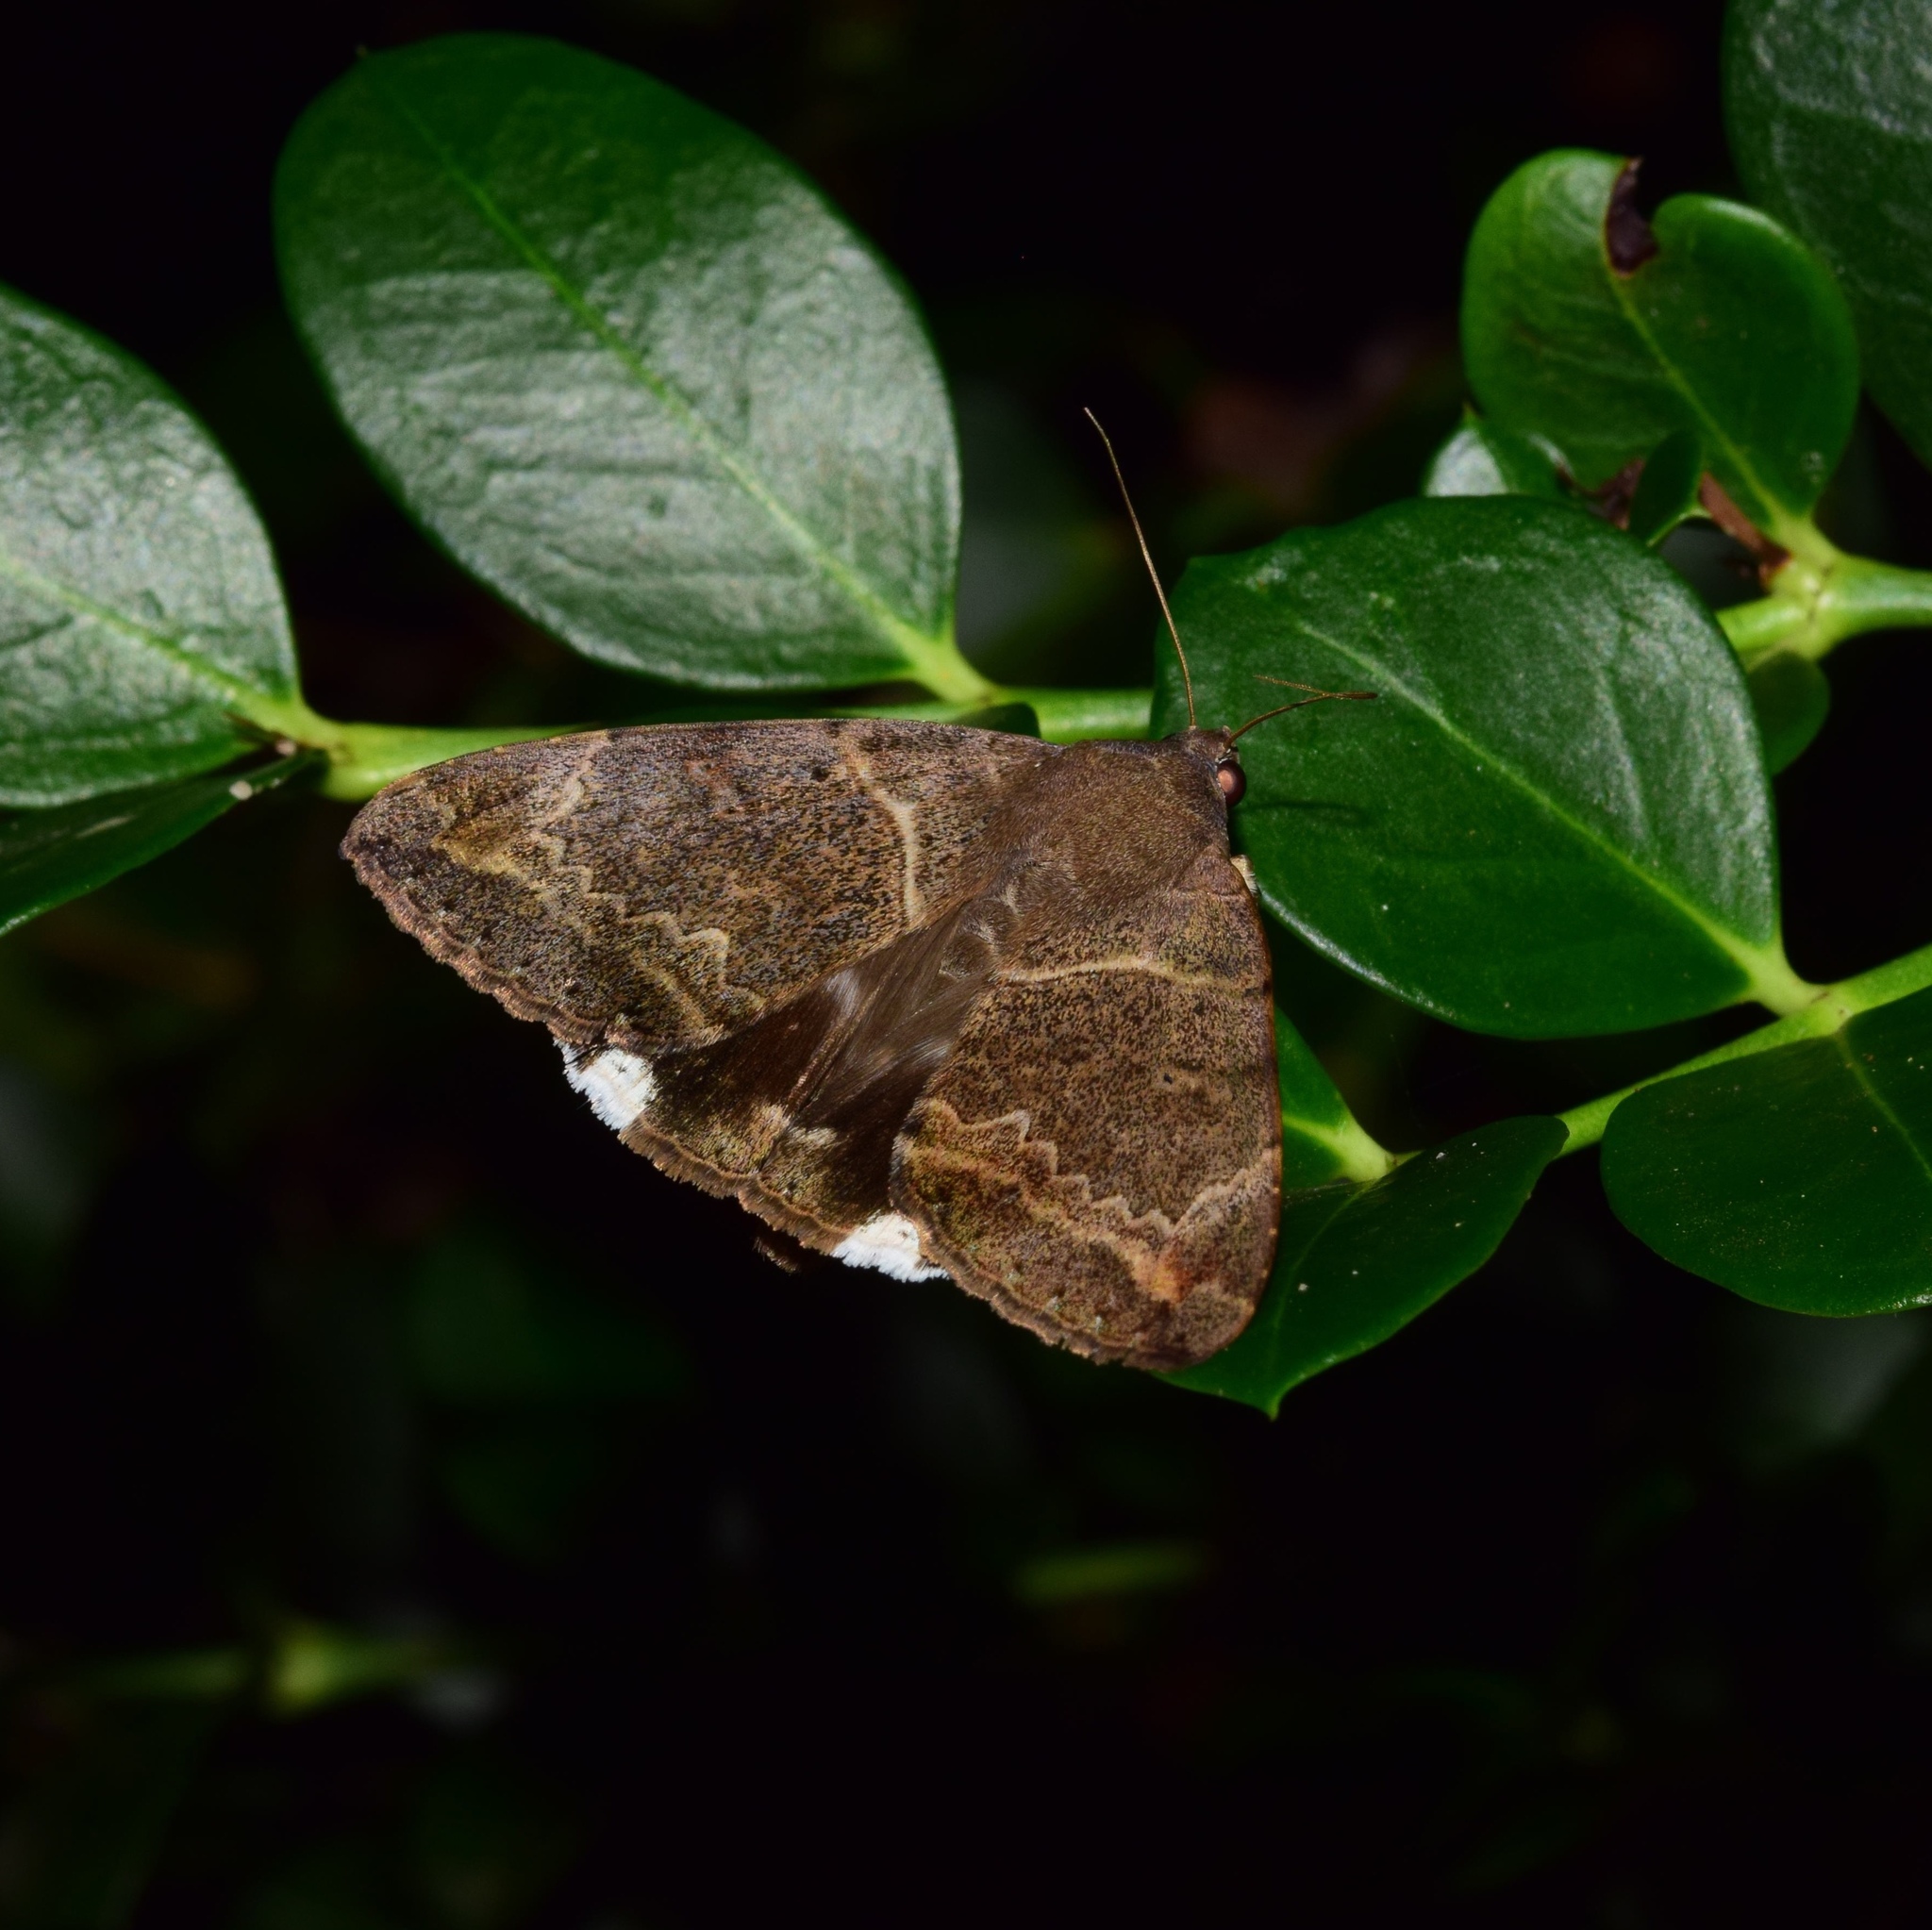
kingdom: Animalia
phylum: Arthropoda
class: Insecta
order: Lepidoptera
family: Erebidae
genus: Achaea
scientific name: Achaea lienardi
